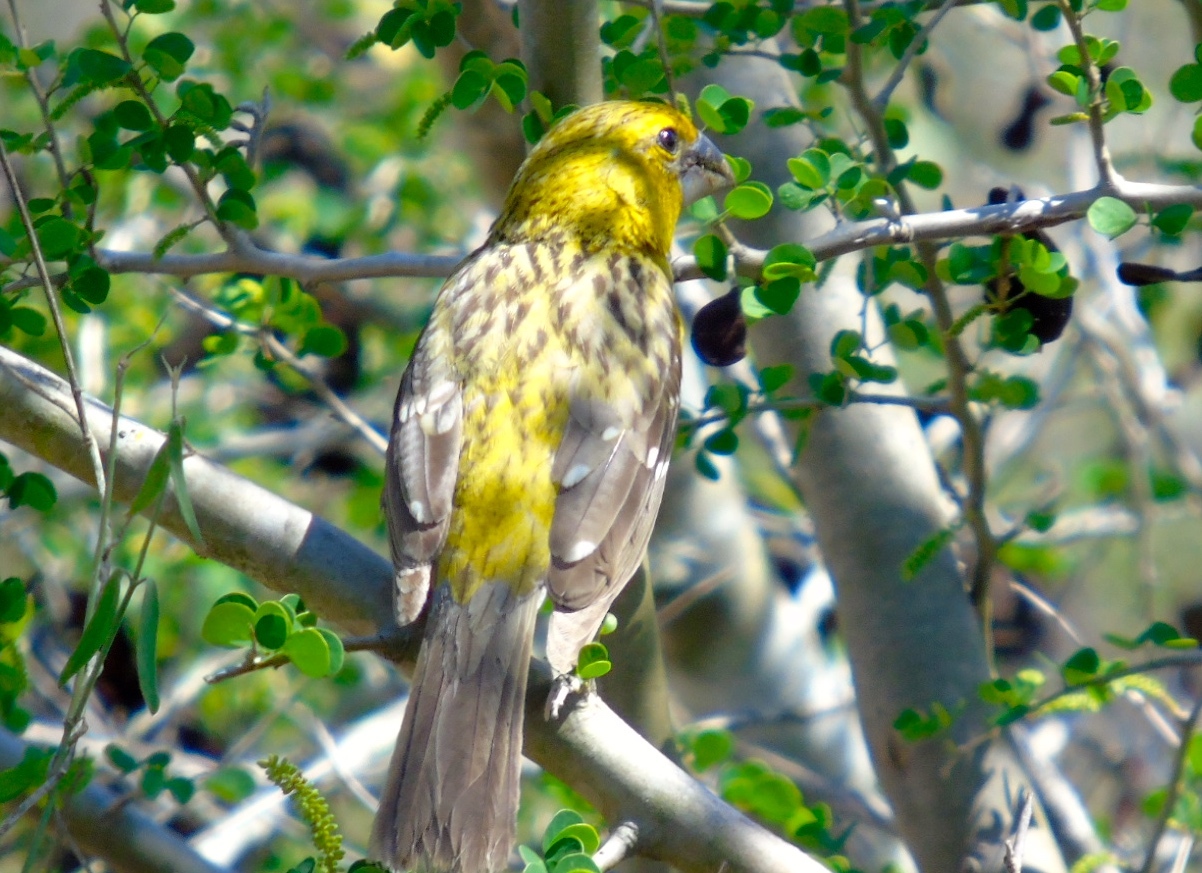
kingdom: Animalia
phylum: Chordata
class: Aves
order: Passeriformes
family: Cardinalidae
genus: Pheucticus
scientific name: Pheucticus chrysopeplus
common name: Yellow grosbeak
